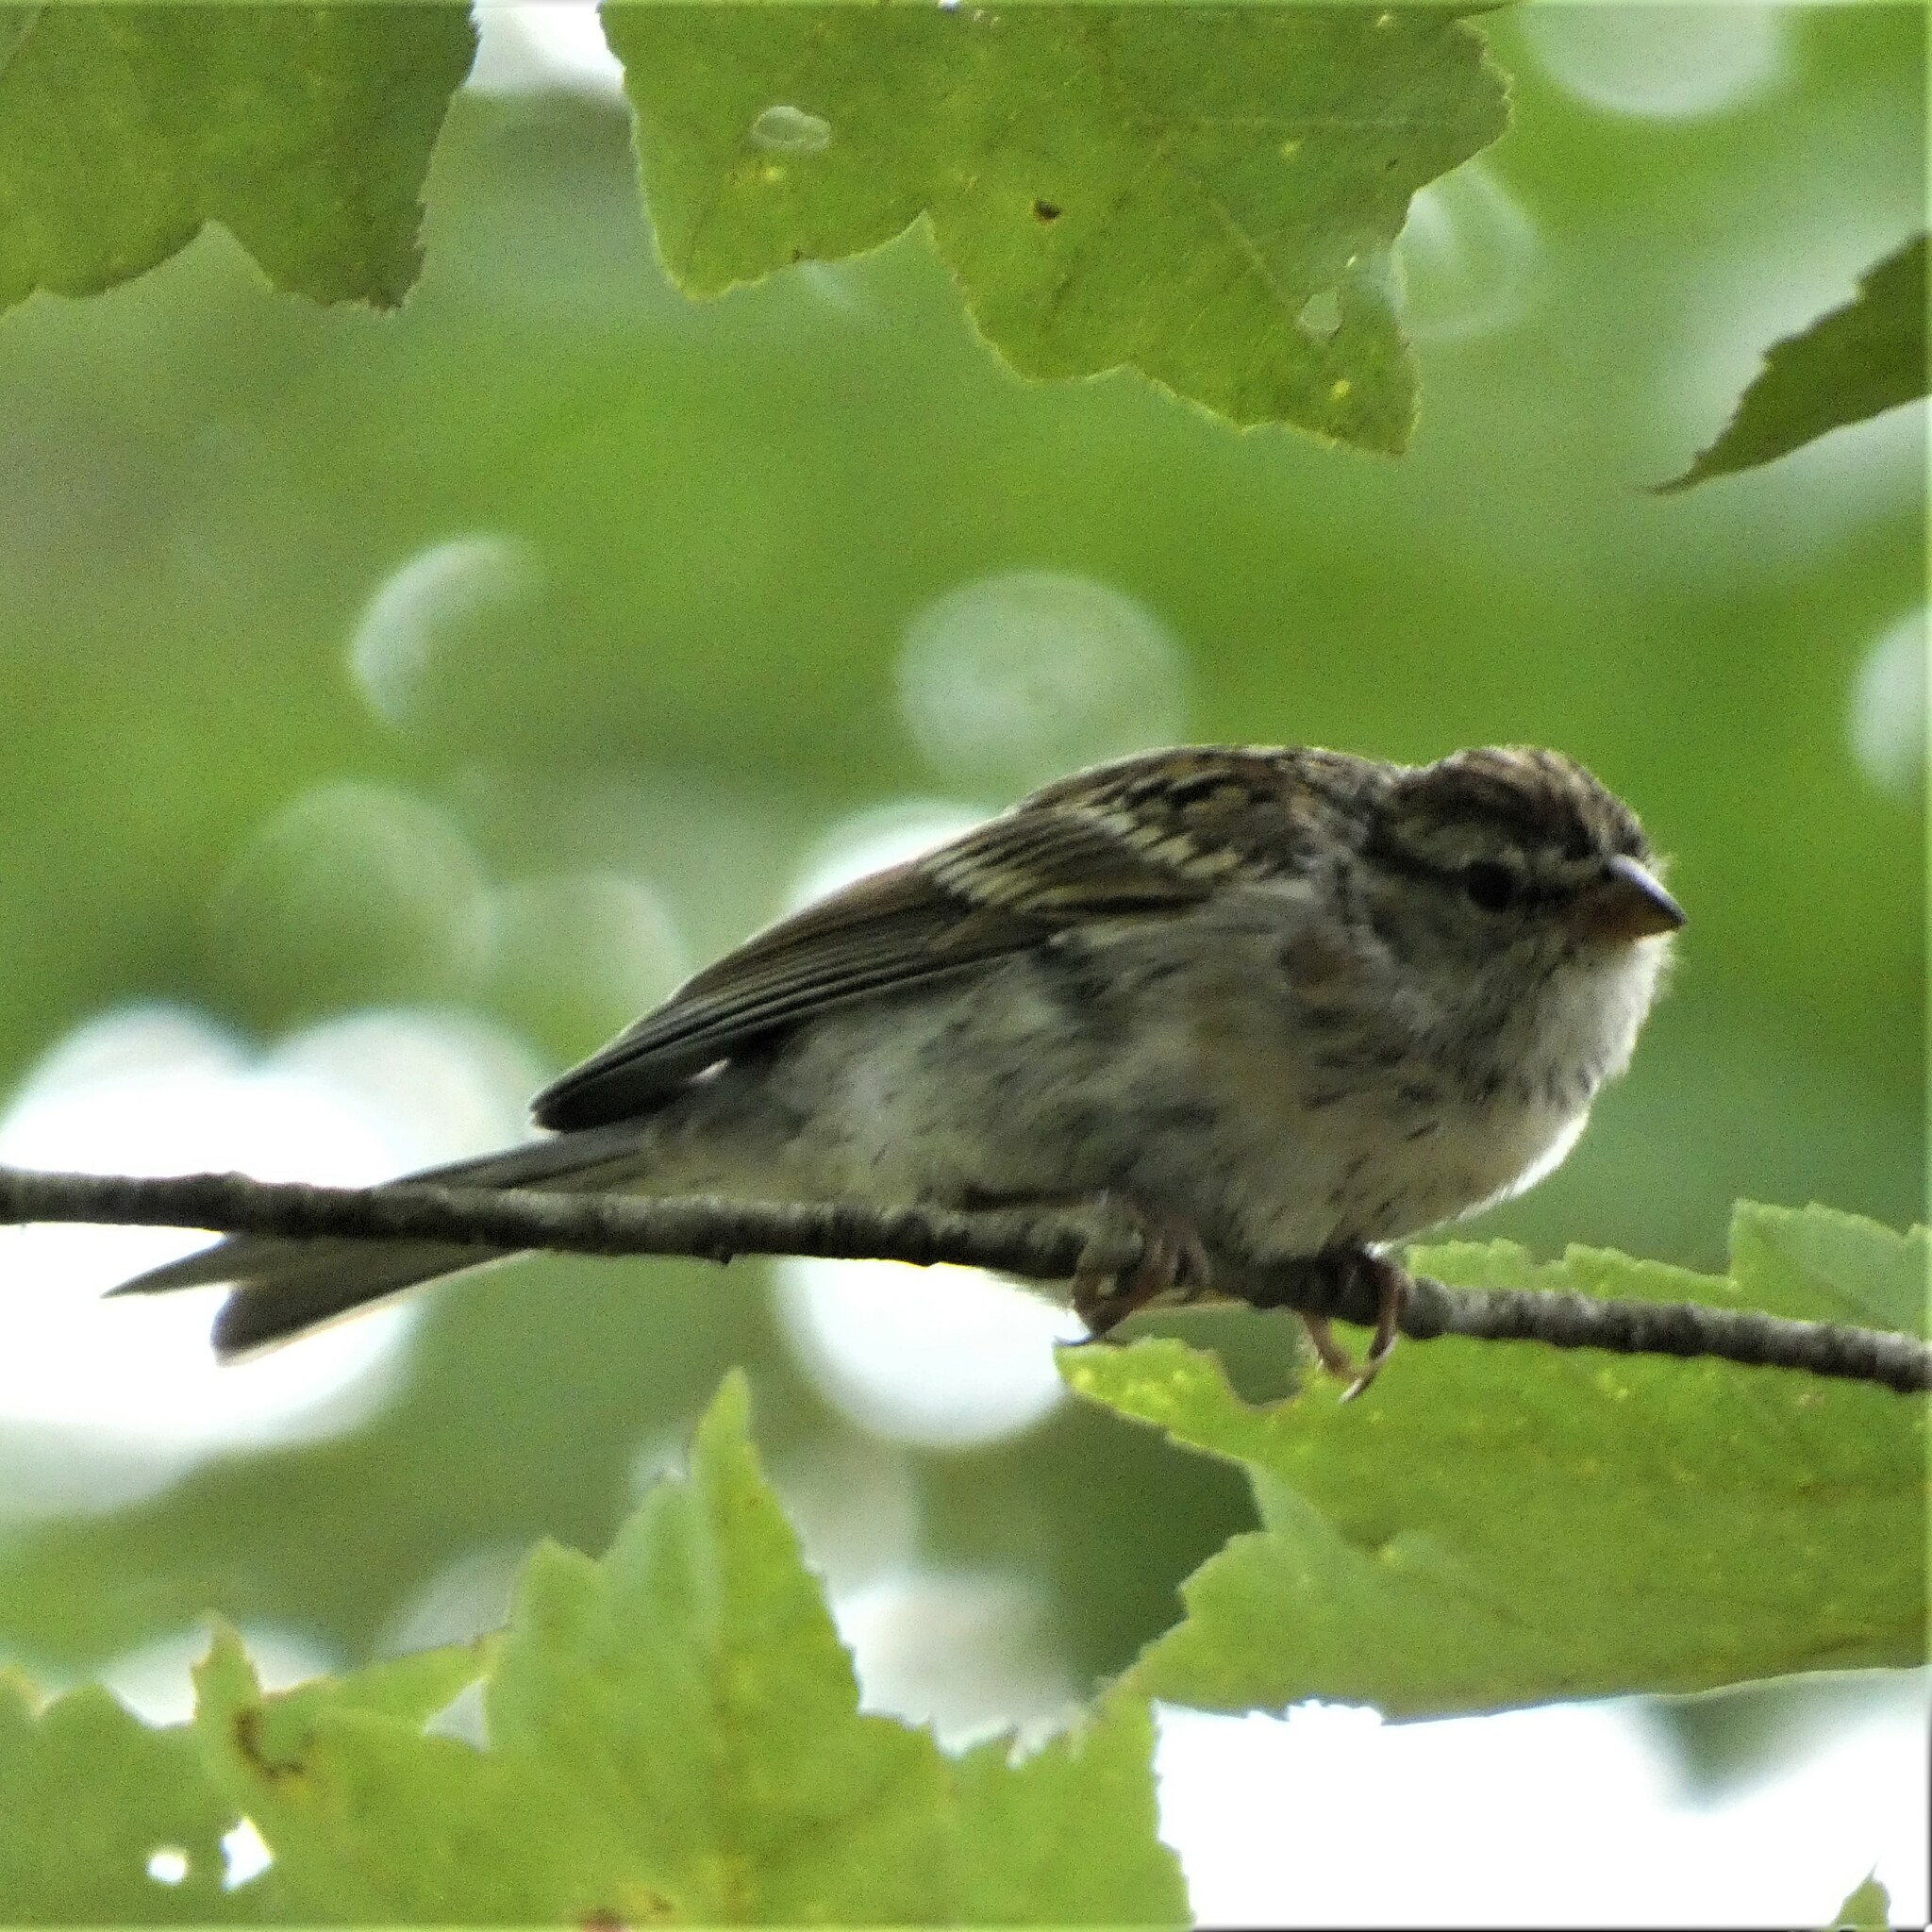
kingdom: Animalia
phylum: Chordata
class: Aves
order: Passeriformes
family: Passerellidae
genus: Spizella
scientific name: Spizella passerina
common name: Chipping sparrow
